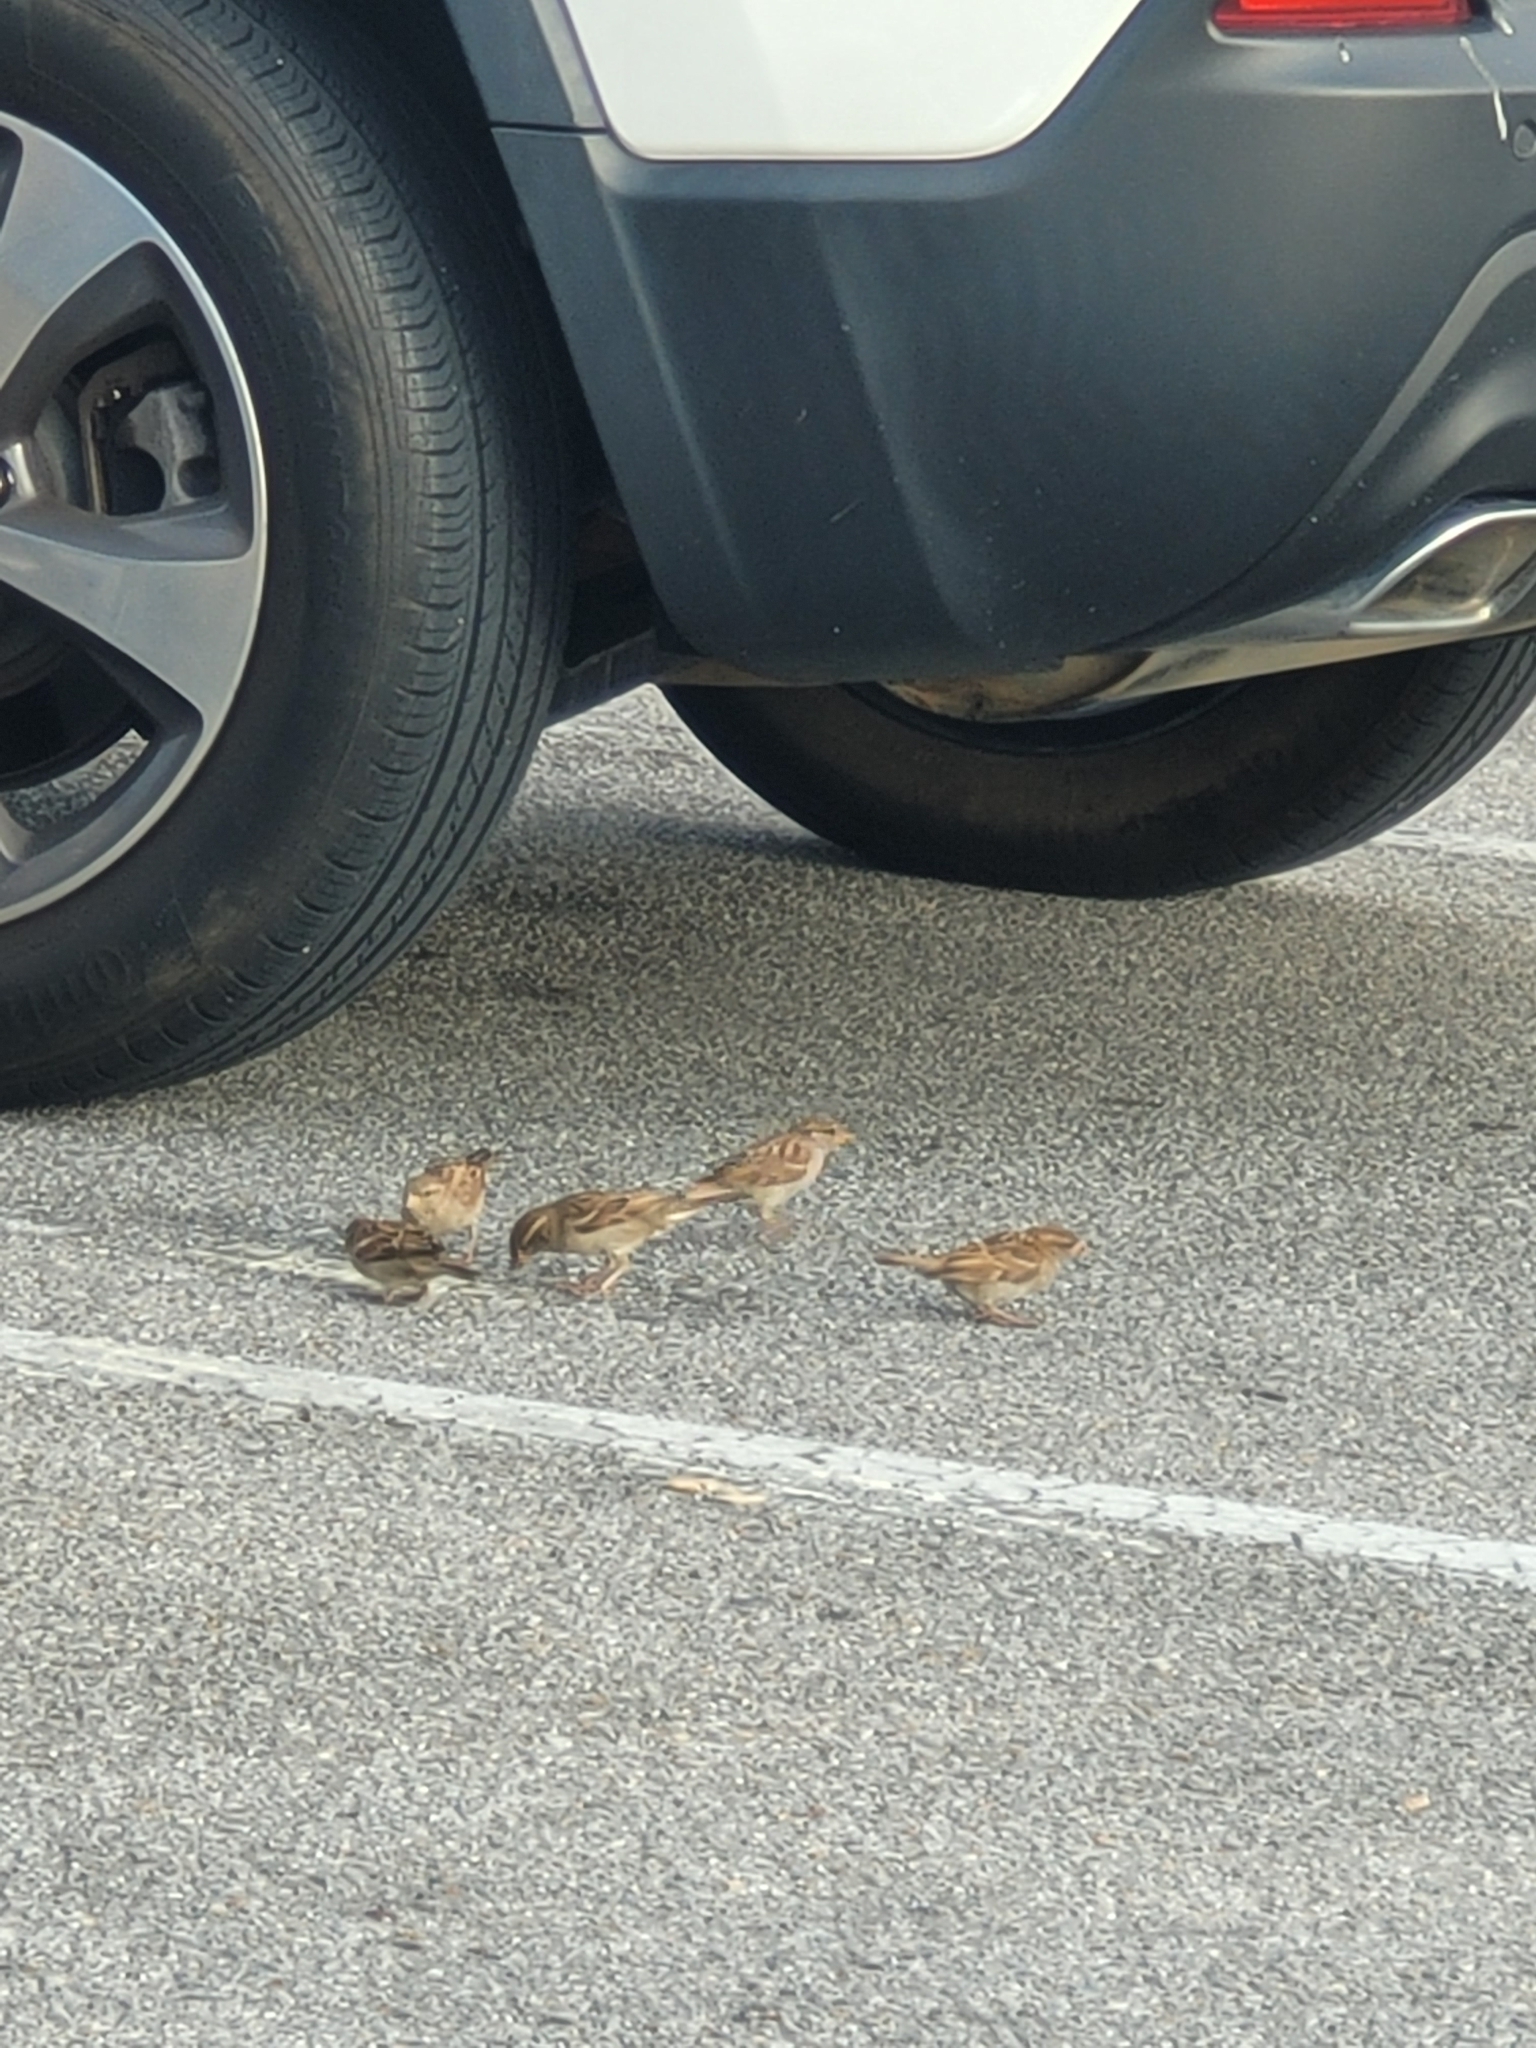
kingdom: Animalia
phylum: Chordata
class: Aves
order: Passeriformes
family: Passeridae
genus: Passer
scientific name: Passer domesticus
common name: House sparrow
